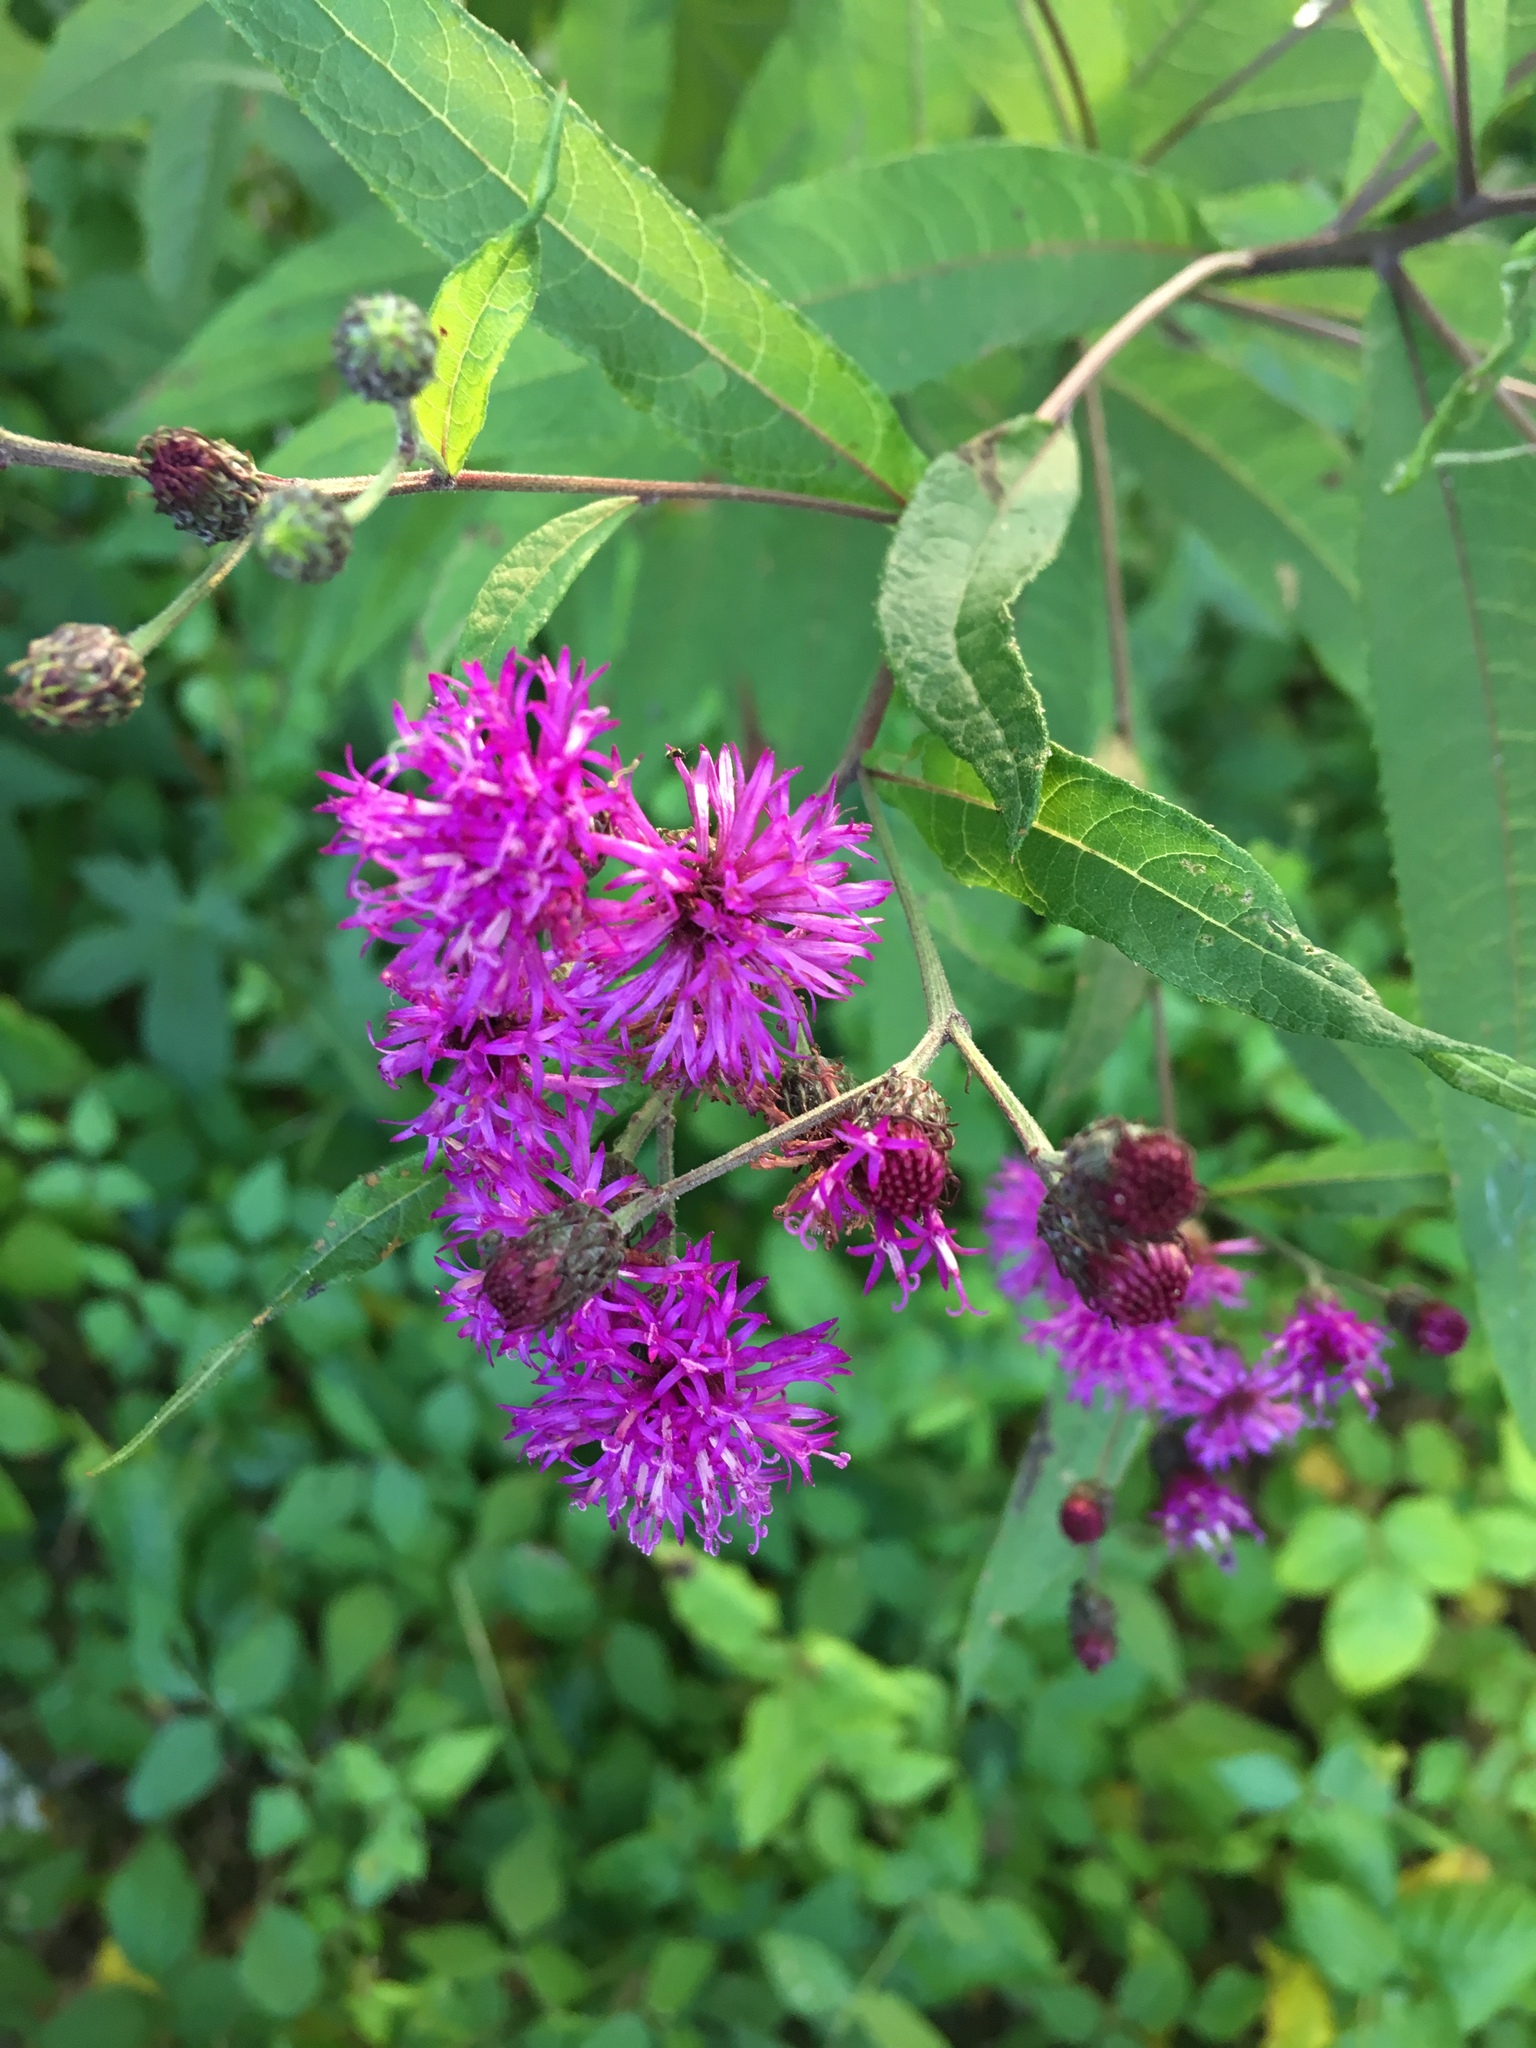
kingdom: Plantae
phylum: Tracheophyta
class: Magnoliopsida
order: Asterales
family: Asteraceae
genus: Vernonia
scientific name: Vernonia noveboracensis
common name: New york ironweed
